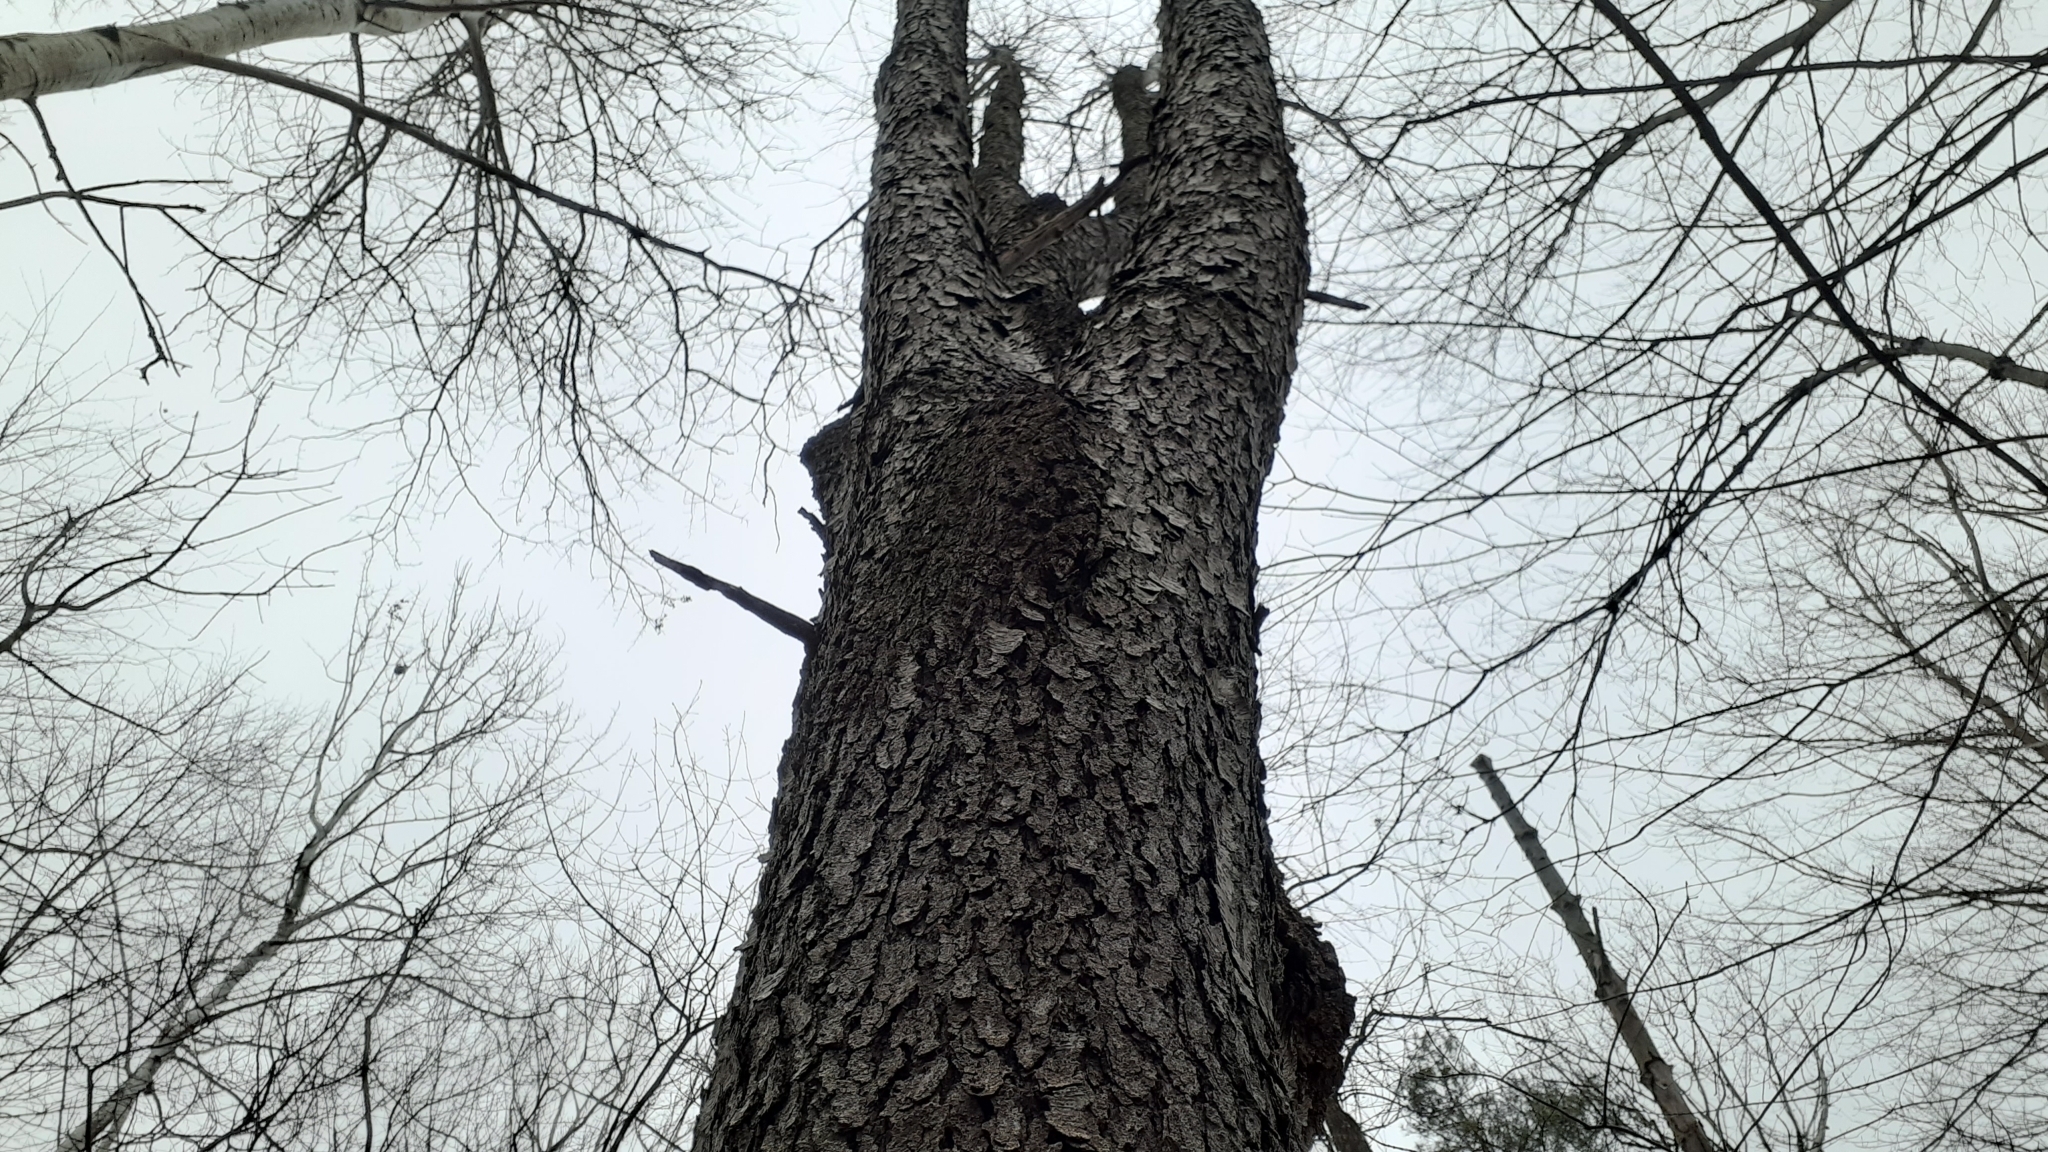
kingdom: Plantae
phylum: Tracheophyta
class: Magnoliopsida
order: Rosales
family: Rosaceae
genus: Prunus
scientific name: Prunus serotina
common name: Black cherry
